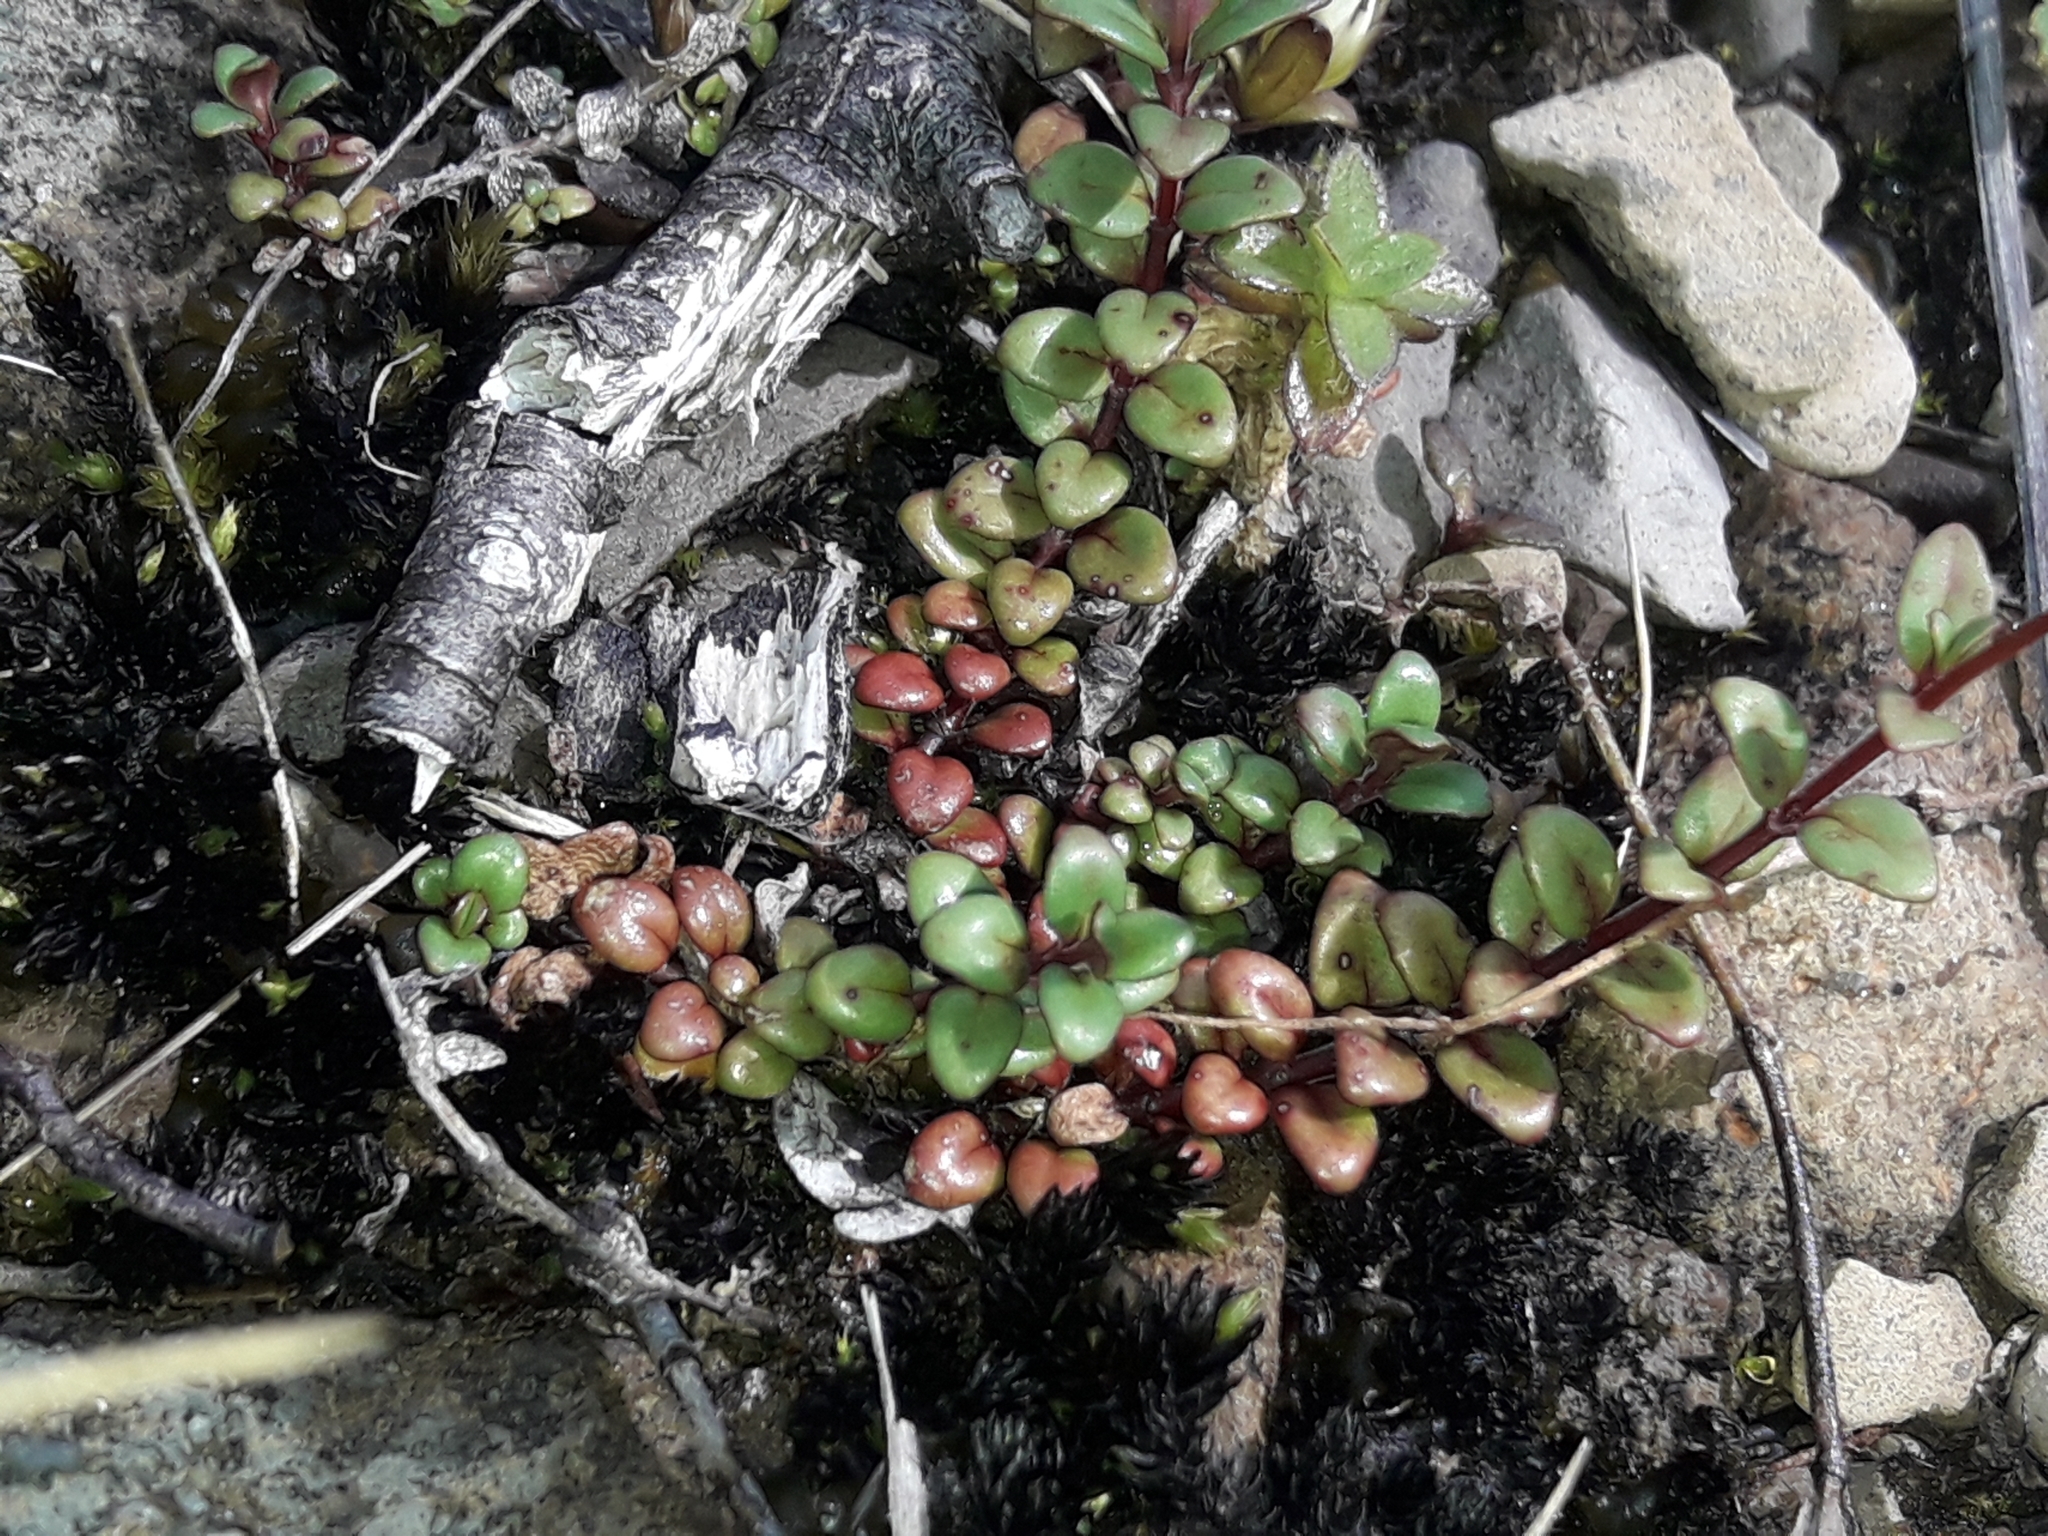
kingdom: Plantae
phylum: Tracheophyta
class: Magnoliopsida
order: Myrtales
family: Onagraceae
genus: Epilobium
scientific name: Epilobium gracilipes
